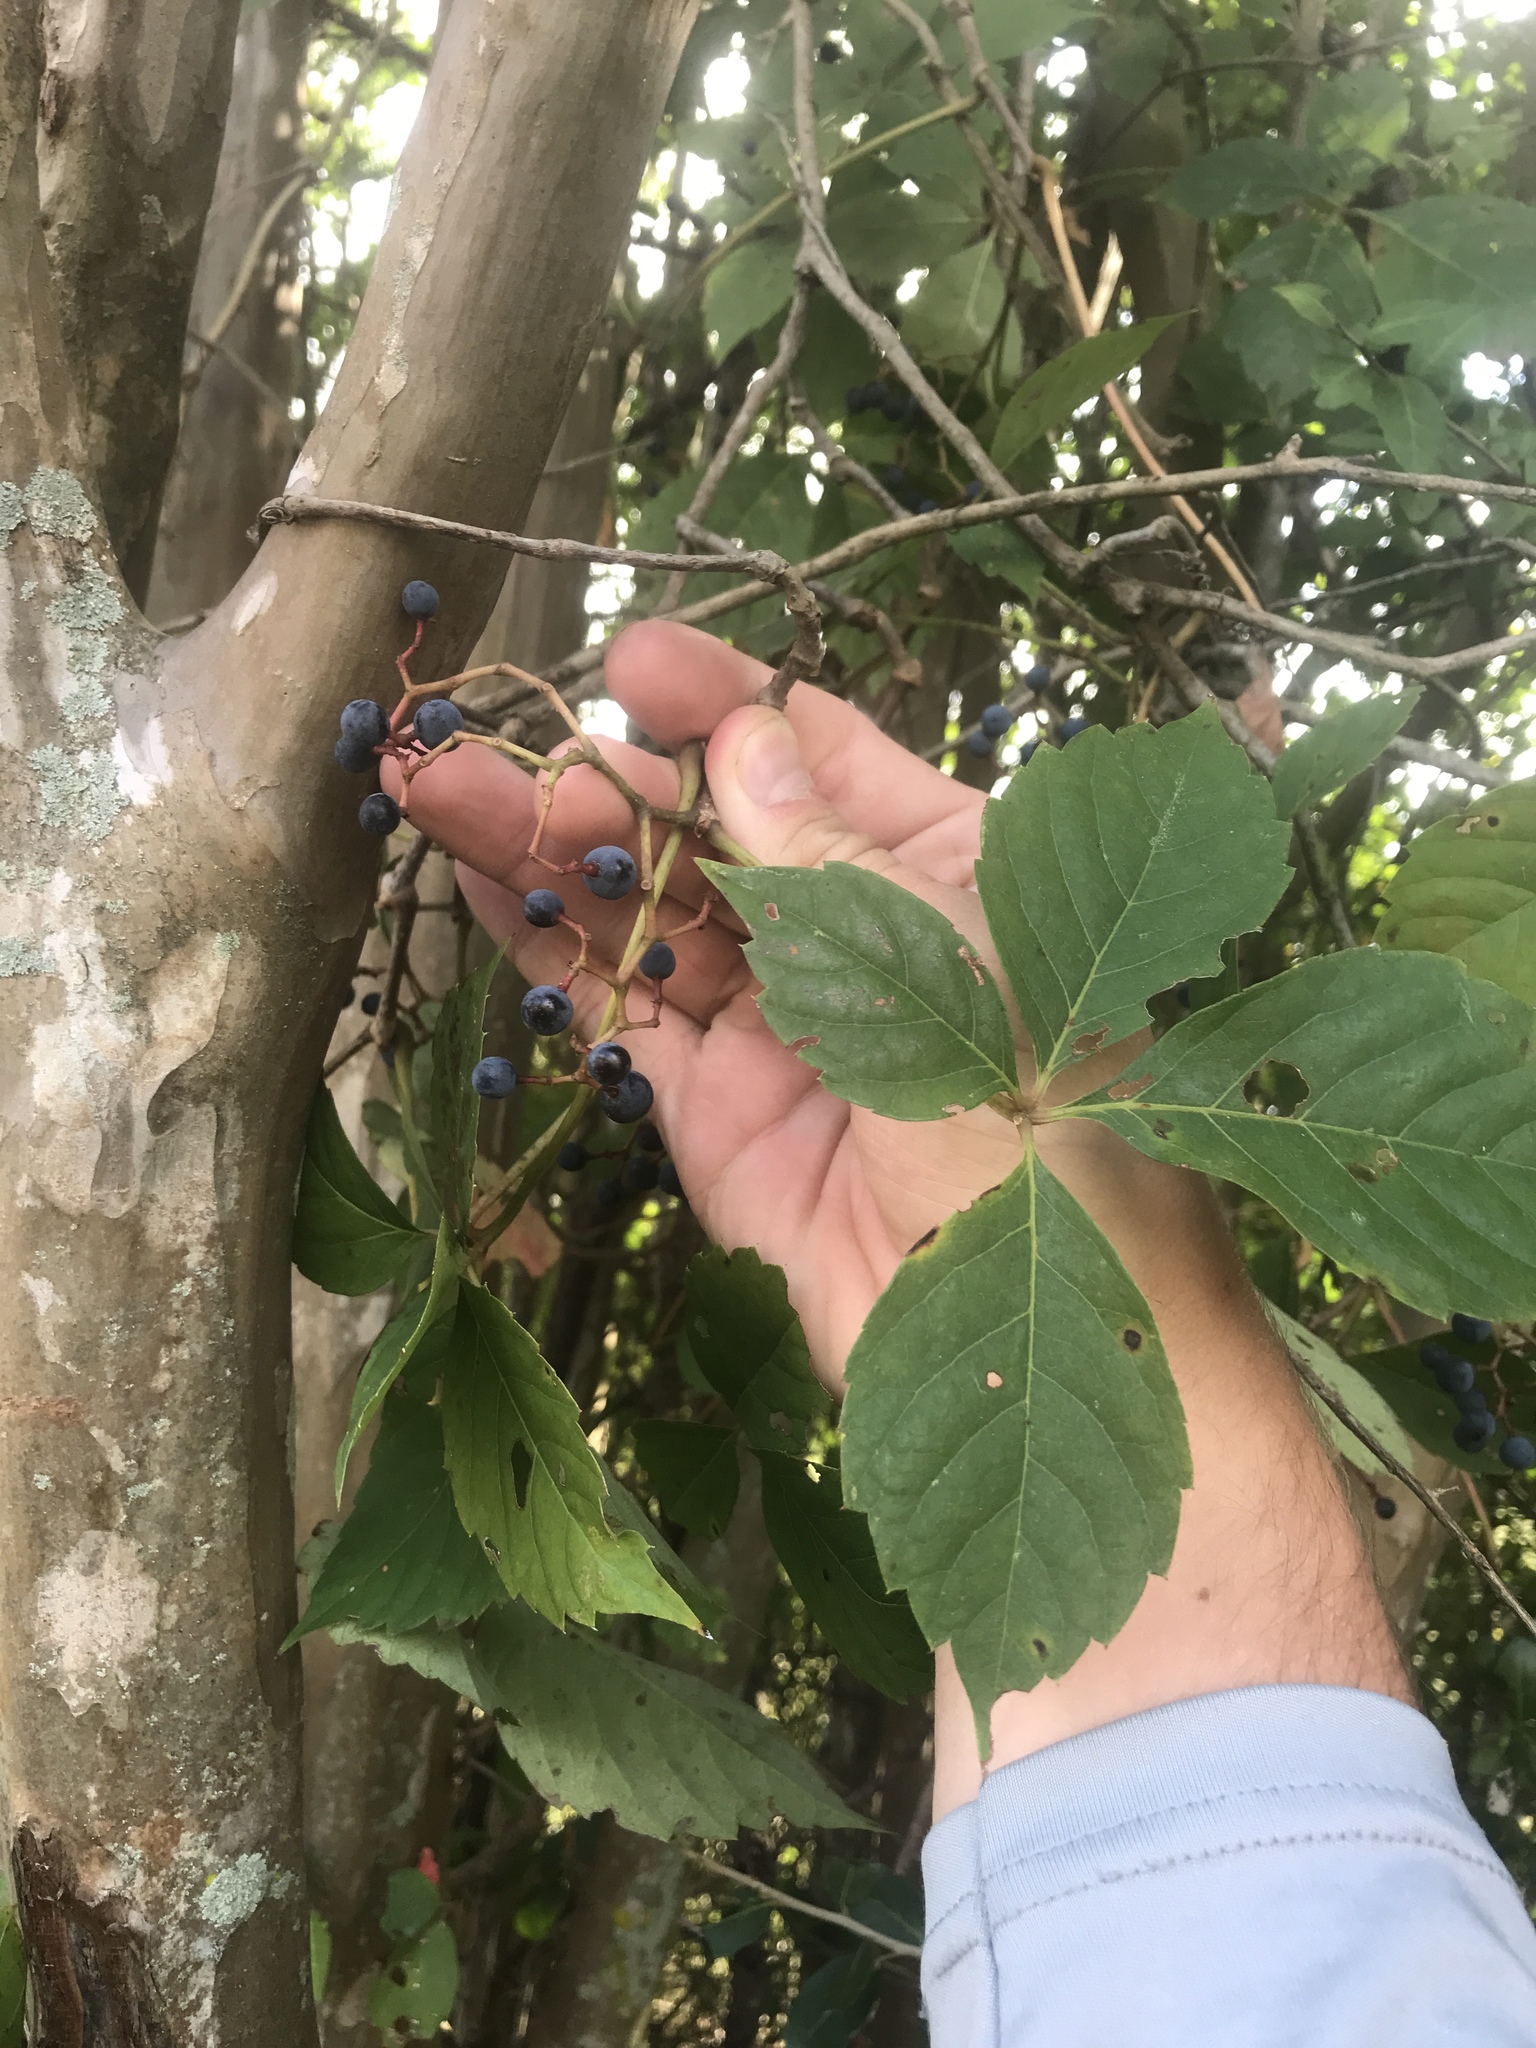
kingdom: Plantae
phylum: Tracheophyta
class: Magnoliopsida
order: Vitales
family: Vitaceae
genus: Parthenocissus
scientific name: Parthenocissus quinquefolia
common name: Virginia-creeper
